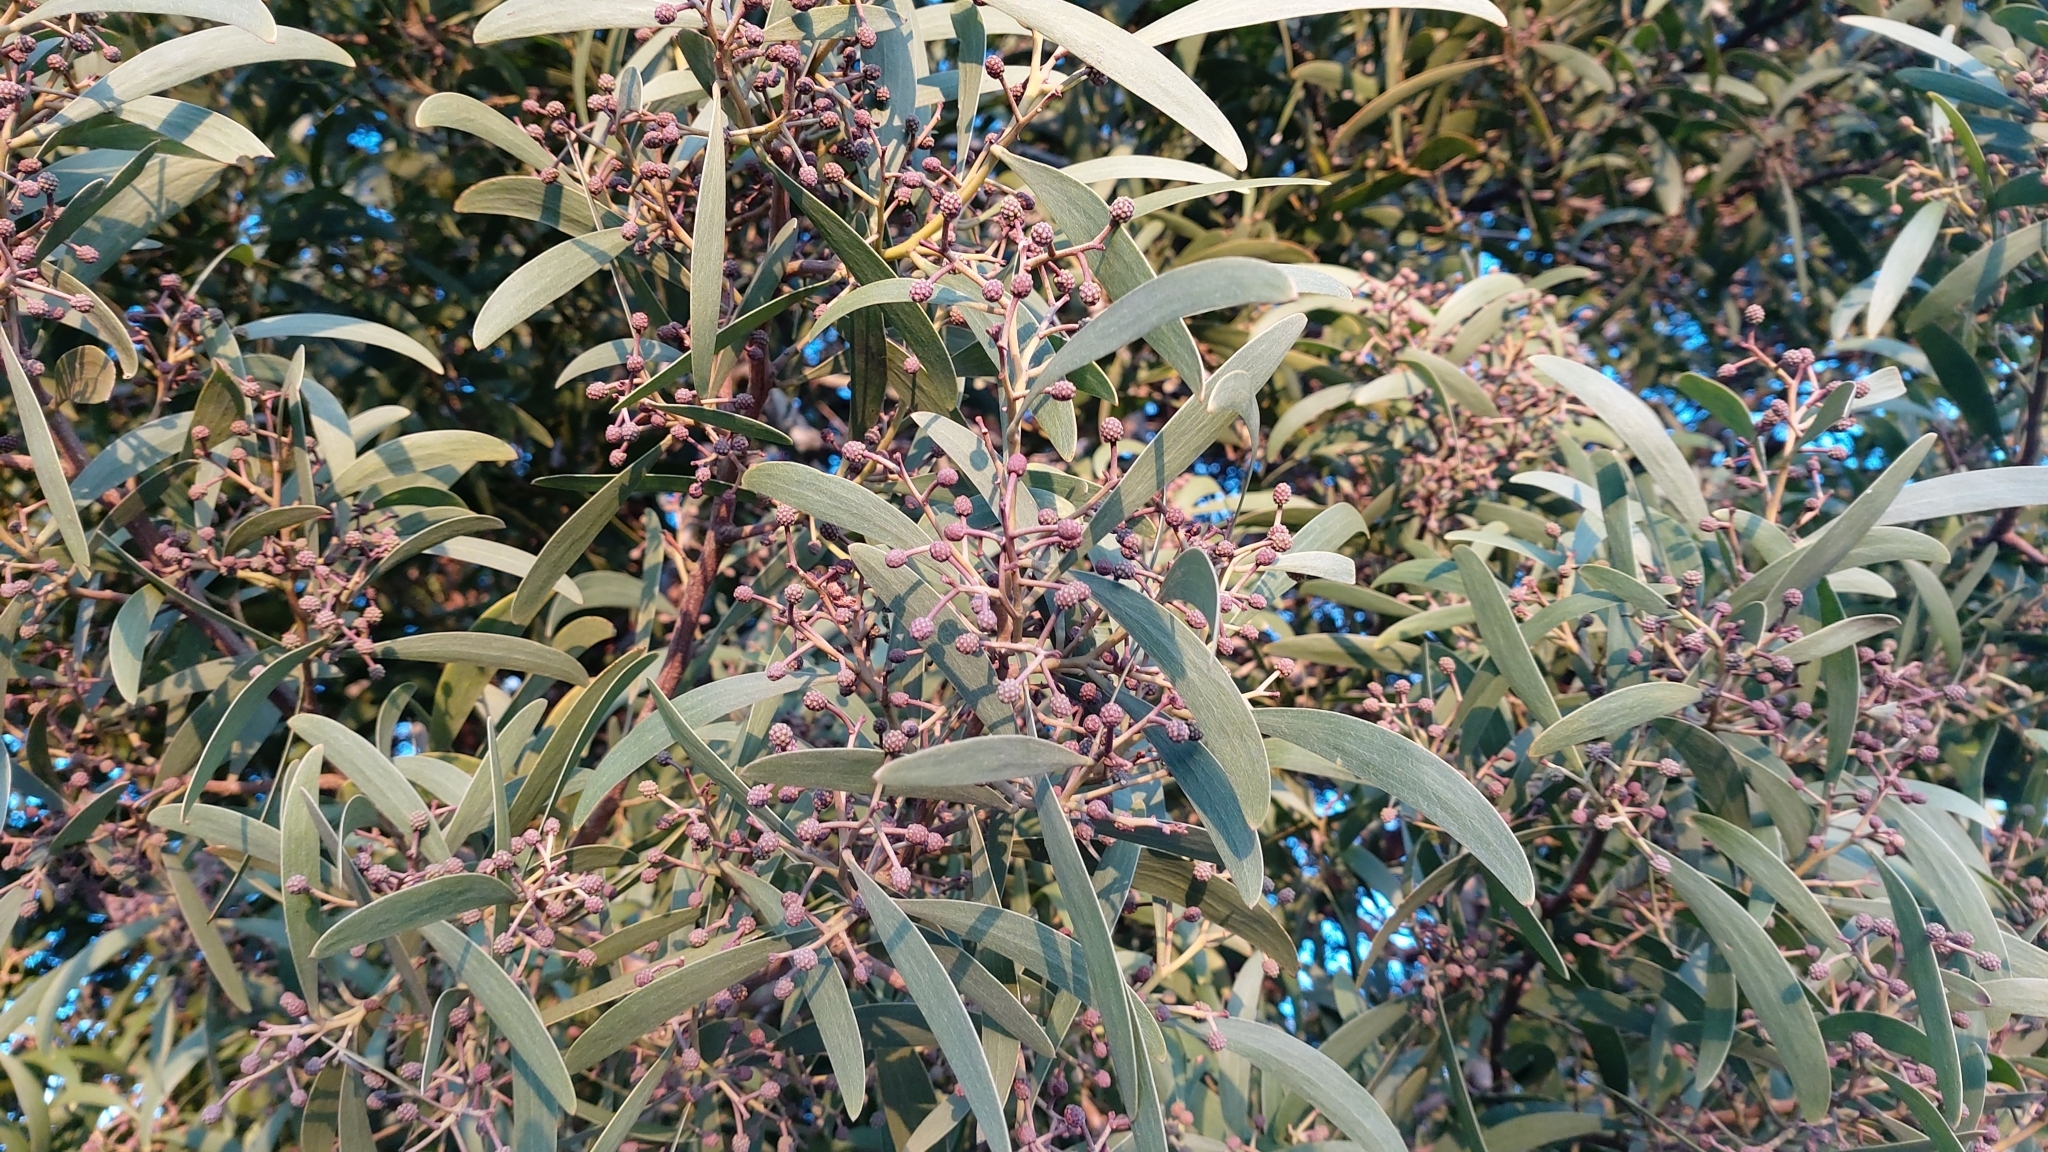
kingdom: Plantae
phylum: Tracheophyta
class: Magnoliopsida
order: Fabales
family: Fabaceae
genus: Acacia
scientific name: Acacia melanoxylon
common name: Blackwood
